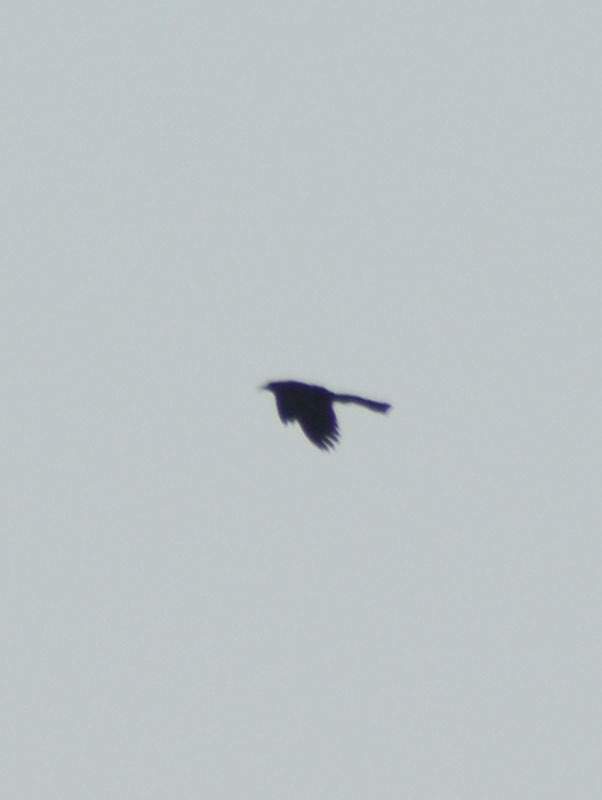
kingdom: Animalia
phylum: Chordata
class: Aves
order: Passeriformes
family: Icteridae
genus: Quiscalus
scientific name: Quiscalus mexicanus
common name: Great-tailed grackle
